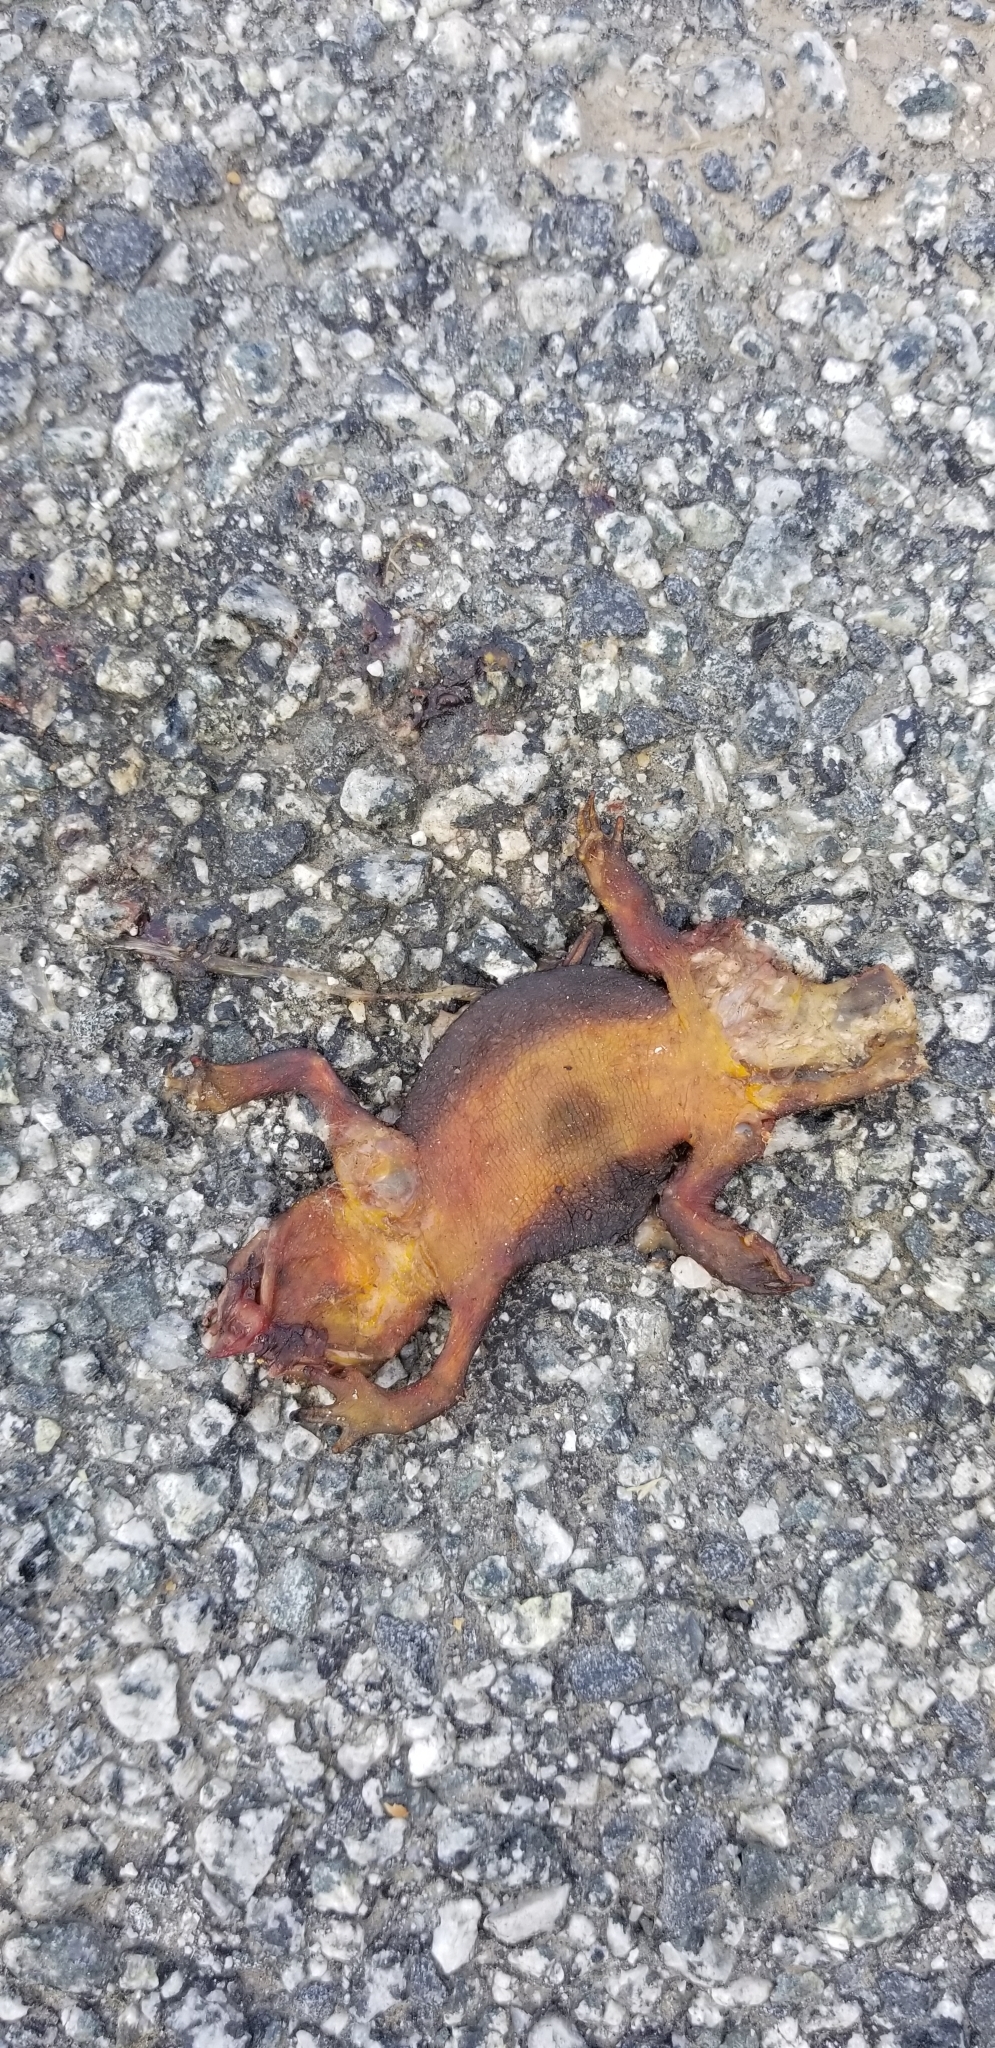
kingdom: Animalia
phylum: Chordata
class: Amphibia
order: Caudata
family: Salamandridae
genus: Taricha
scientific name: Taricha
